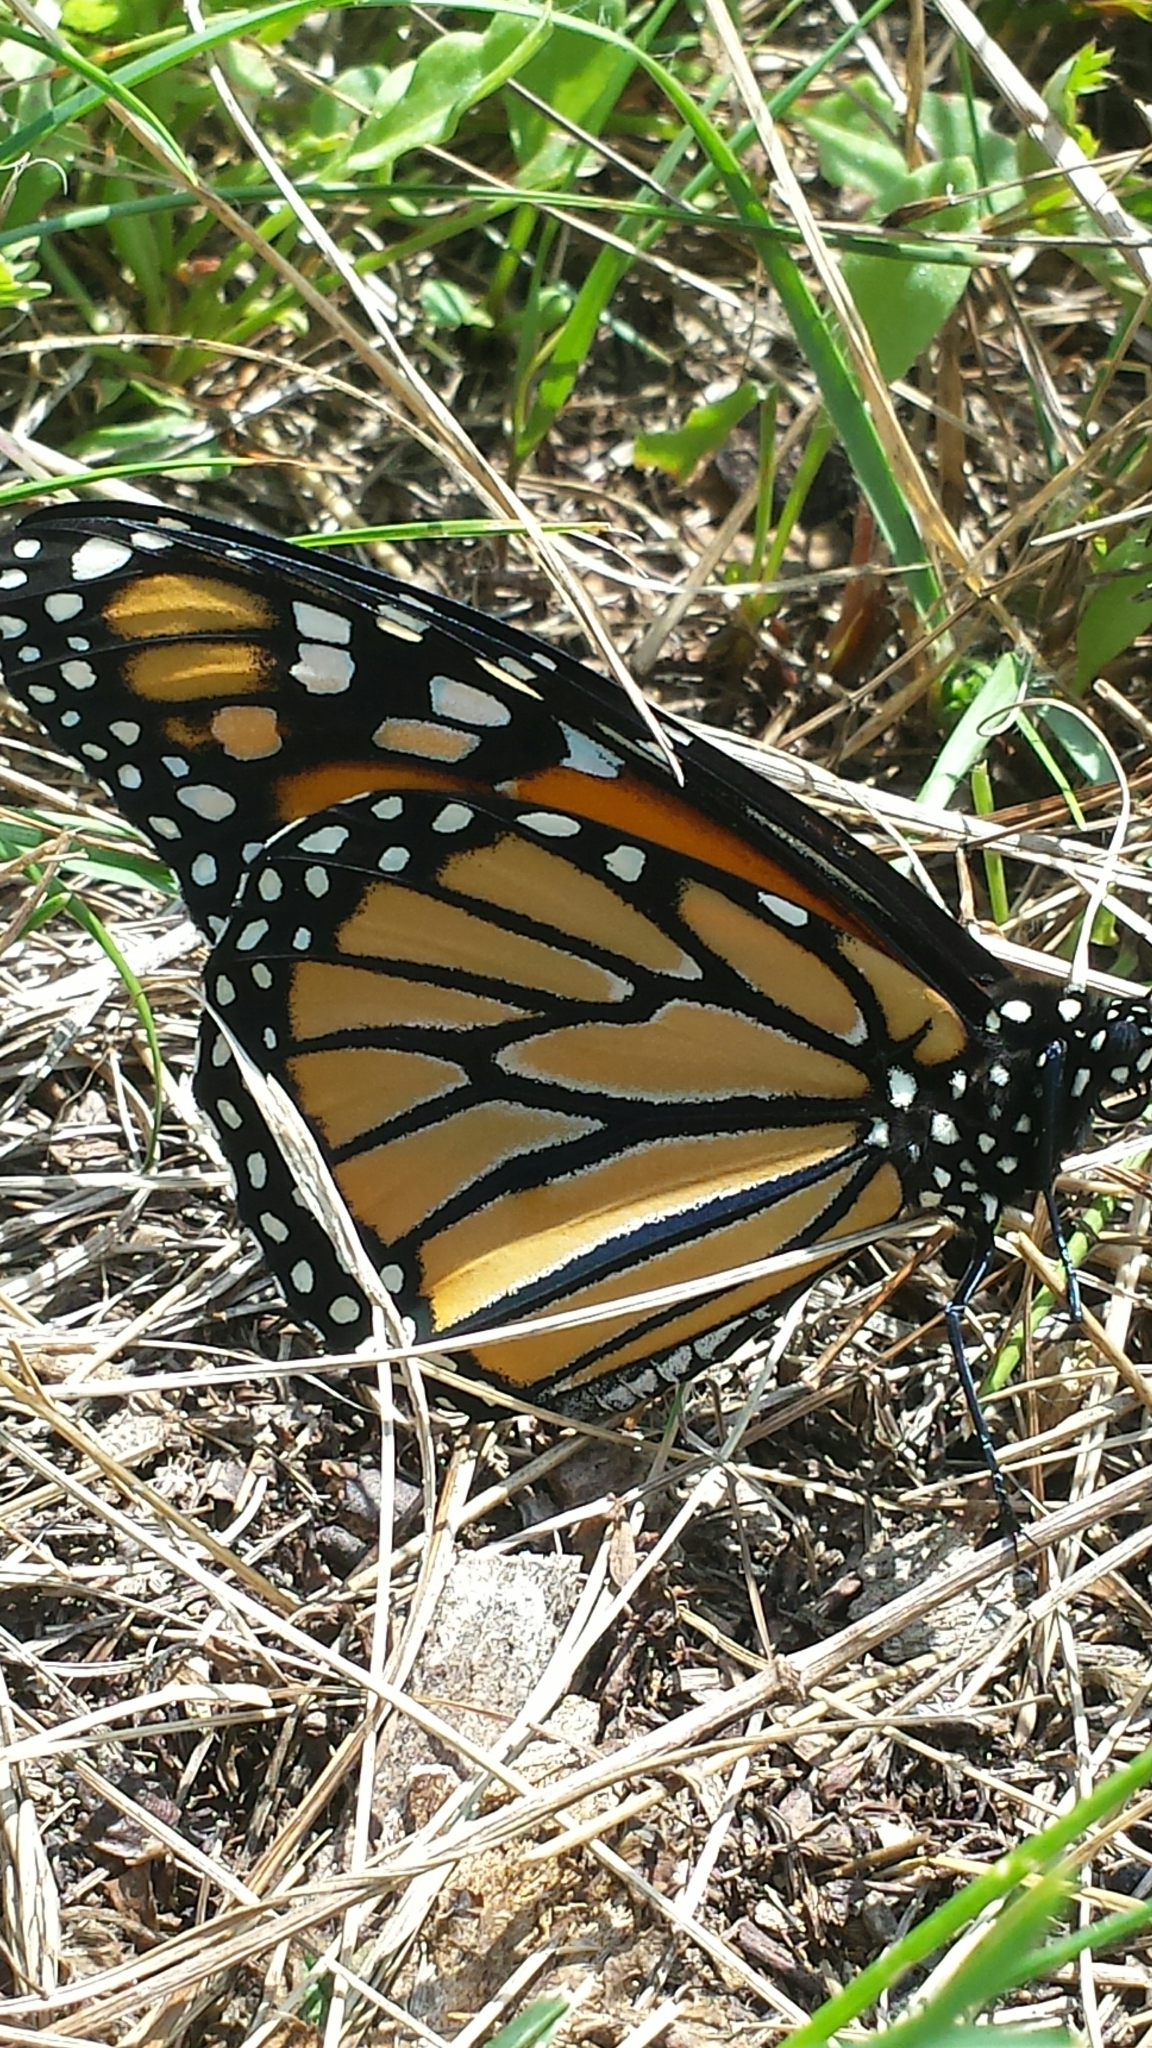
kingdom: Animalia
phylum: Arthropoda
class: Insecta
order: Lepidoptera
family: Nymphalidae
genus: Danaus
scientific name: Danaus plexippus
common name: Monarch
